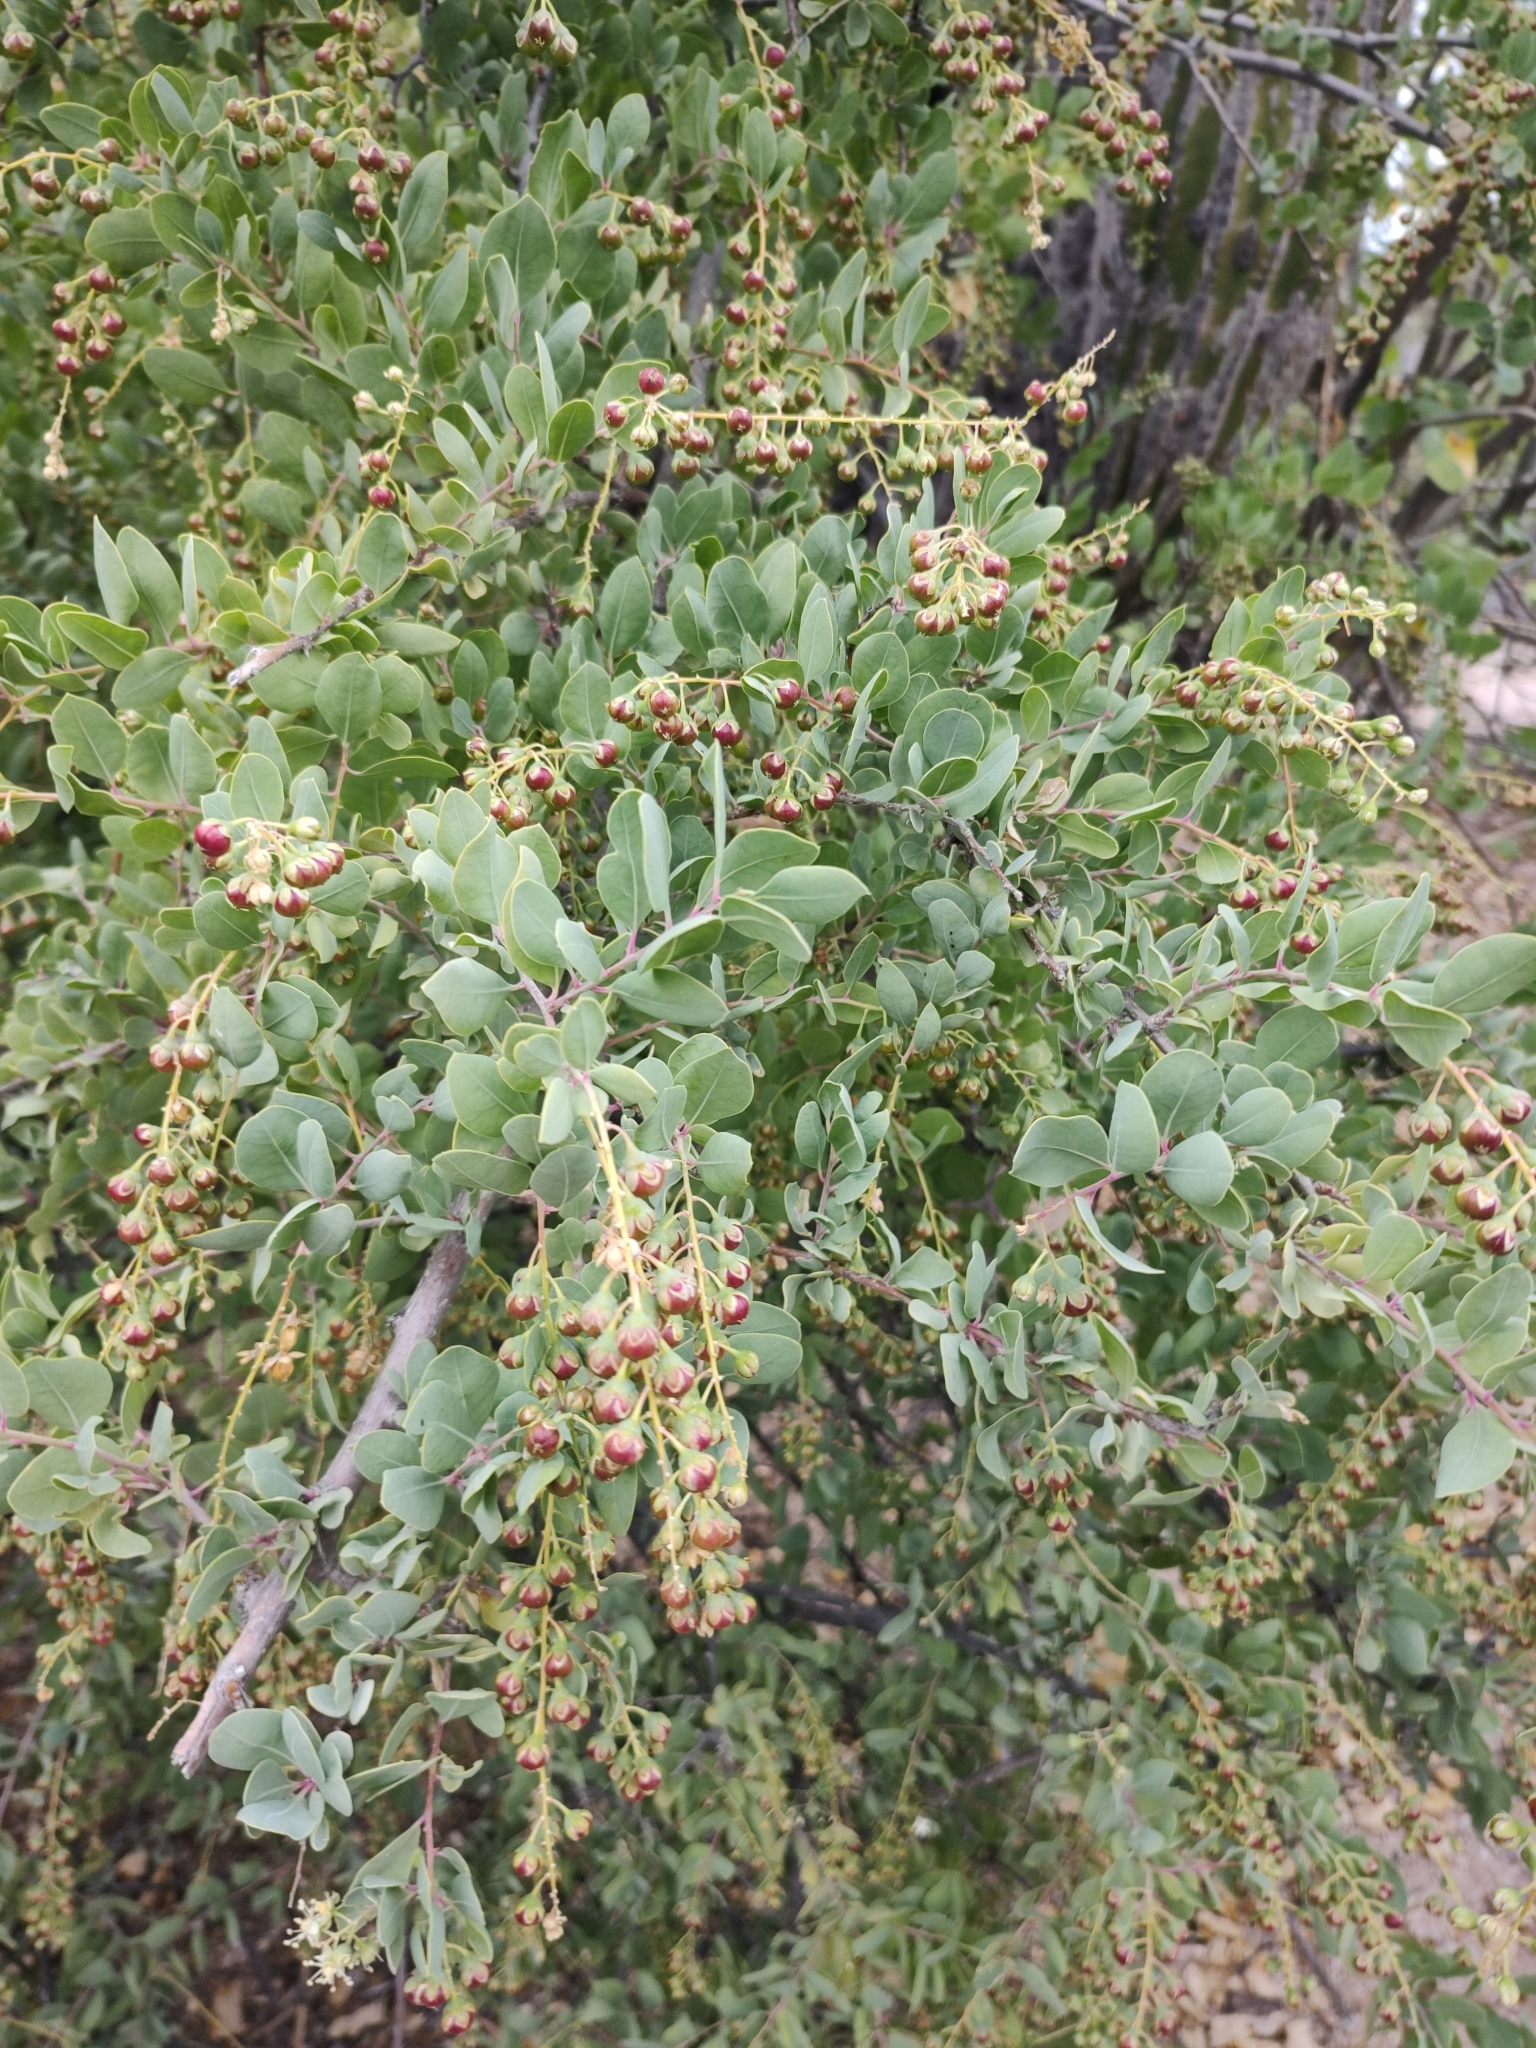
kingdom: Plantae
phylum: Tracheophyta
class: Magnoliopsida
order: Caryophyllales
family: Stegnospermataceae
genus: Stegnosperma
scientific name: Stegnosperma halimifolium
